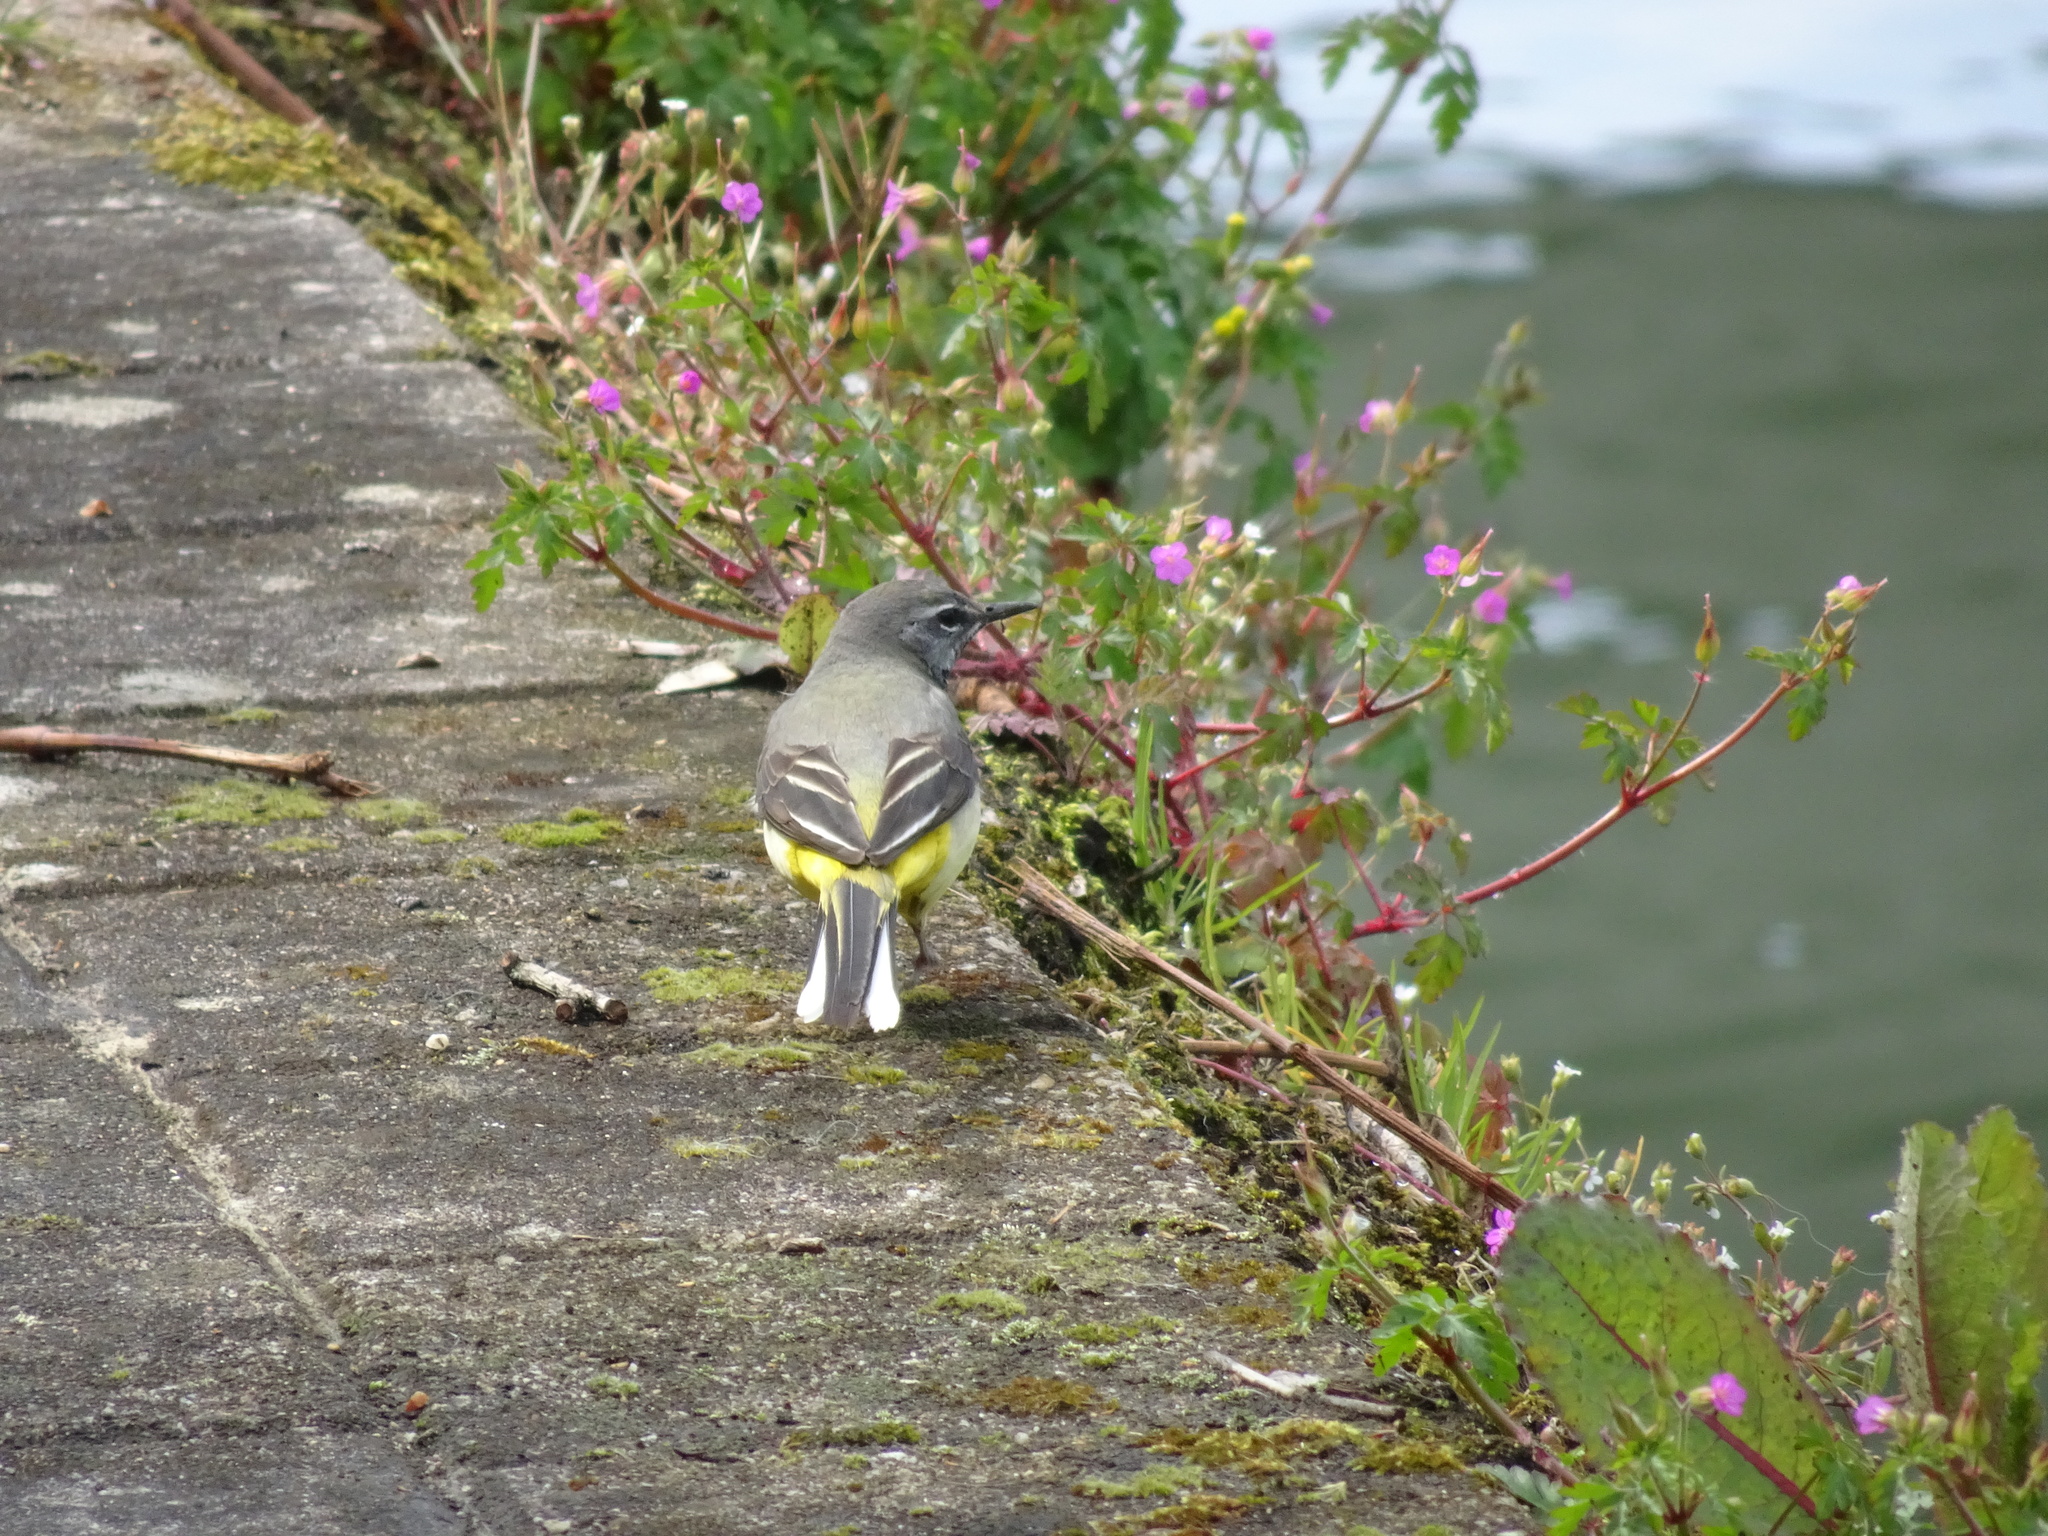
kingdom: Animalia
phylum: Chordata
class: Aves
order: Passeriformes
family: Motacillidae
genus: Motacilla
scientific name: Motacilla cinerea
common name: Grey wagtail
